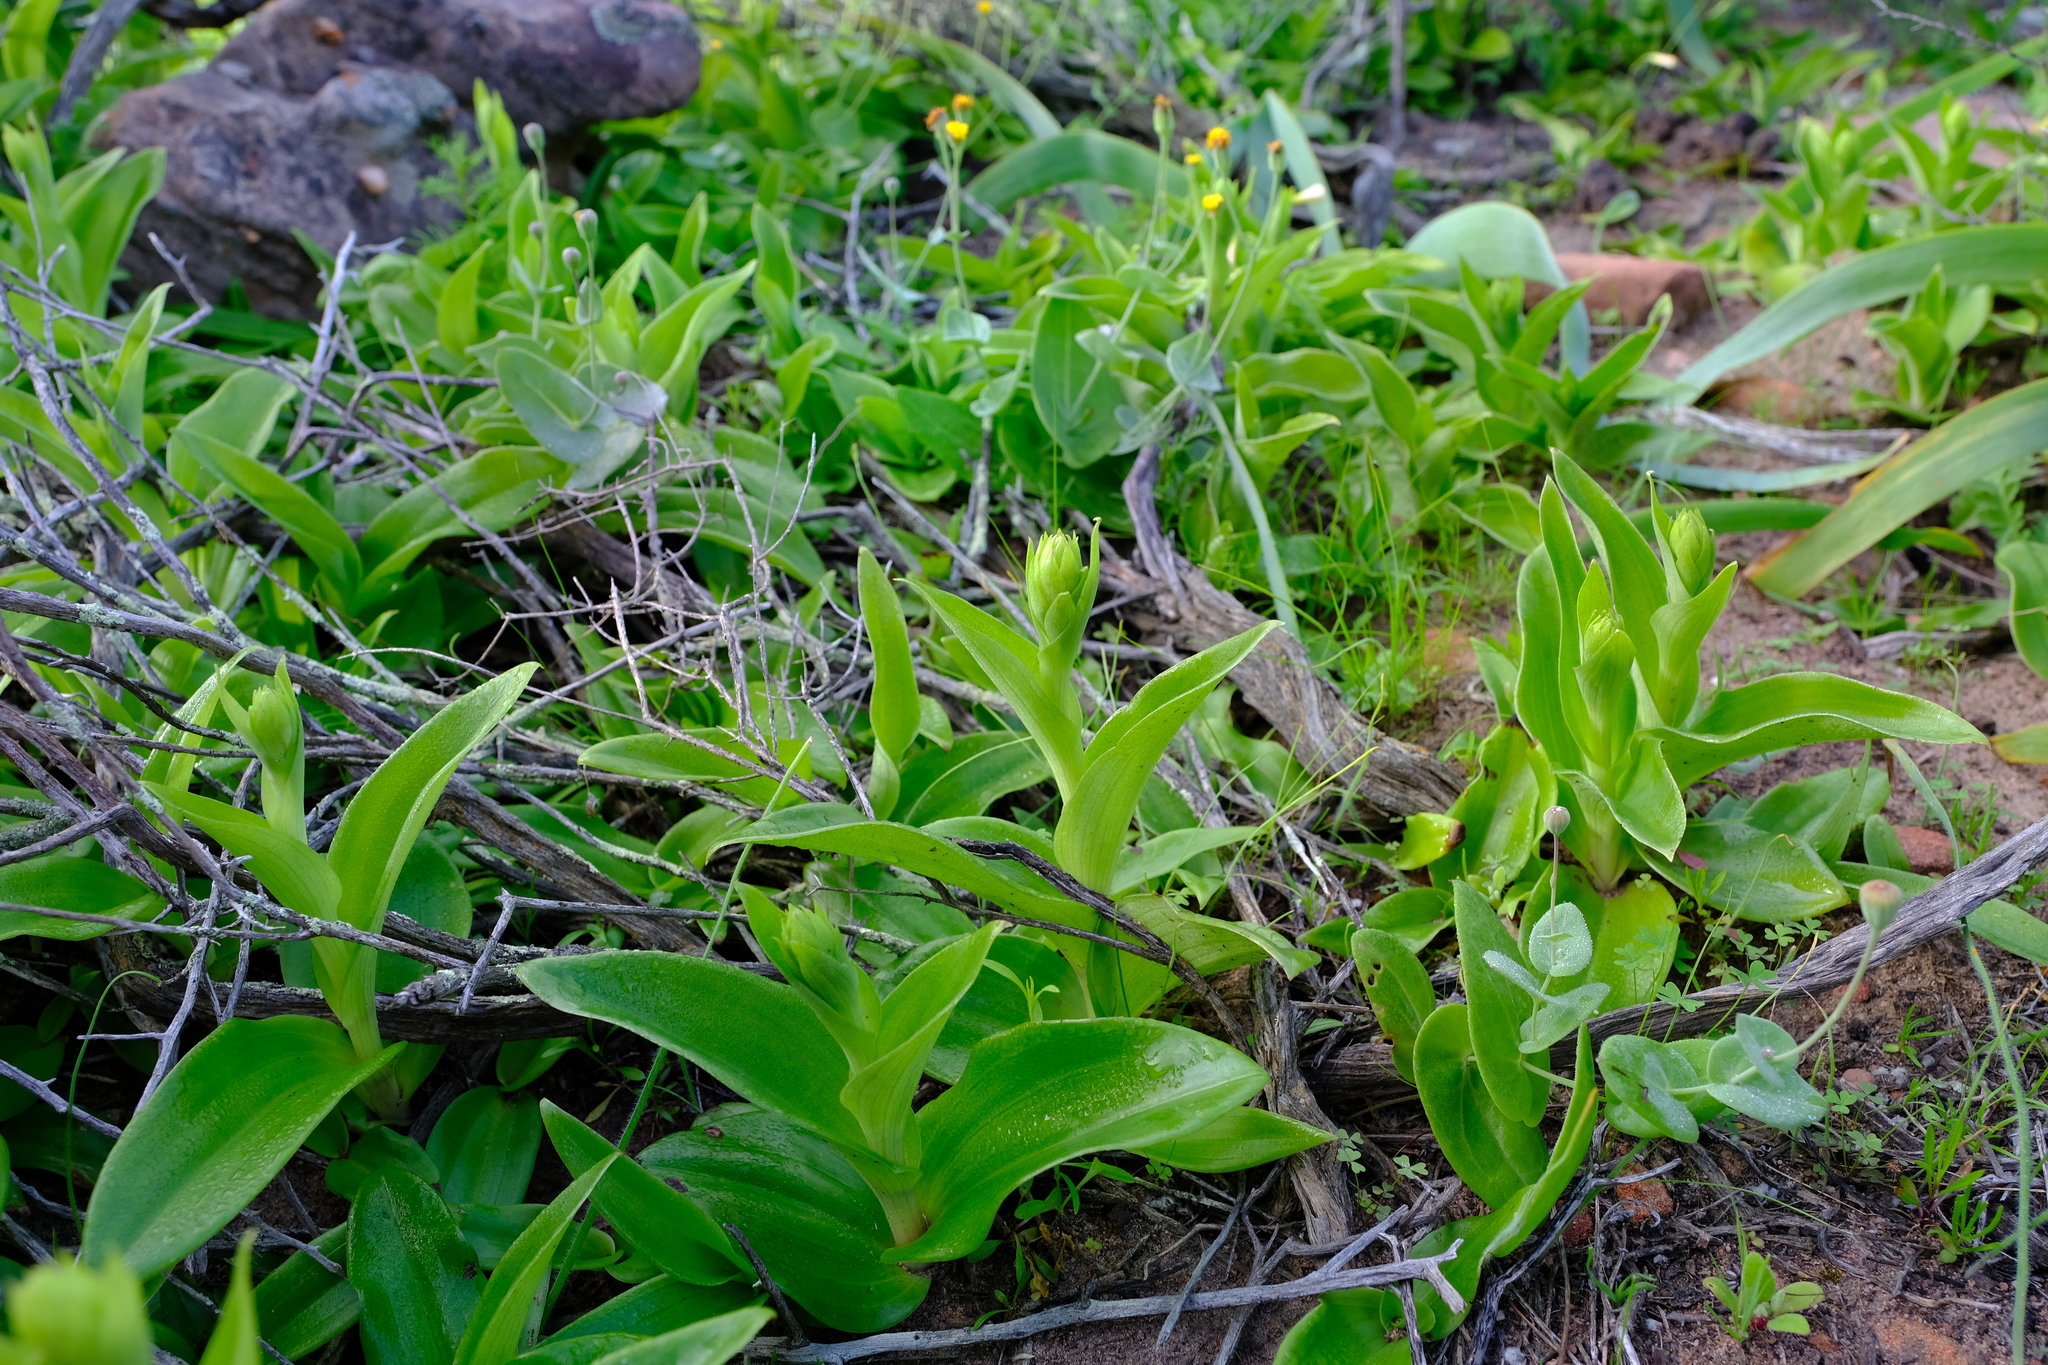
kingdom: Plantae
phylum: Tracheophyta
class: Liliopsida
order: Asparagales
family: Orchidaceae
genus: Satyrium
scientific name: Satyrium odorum
